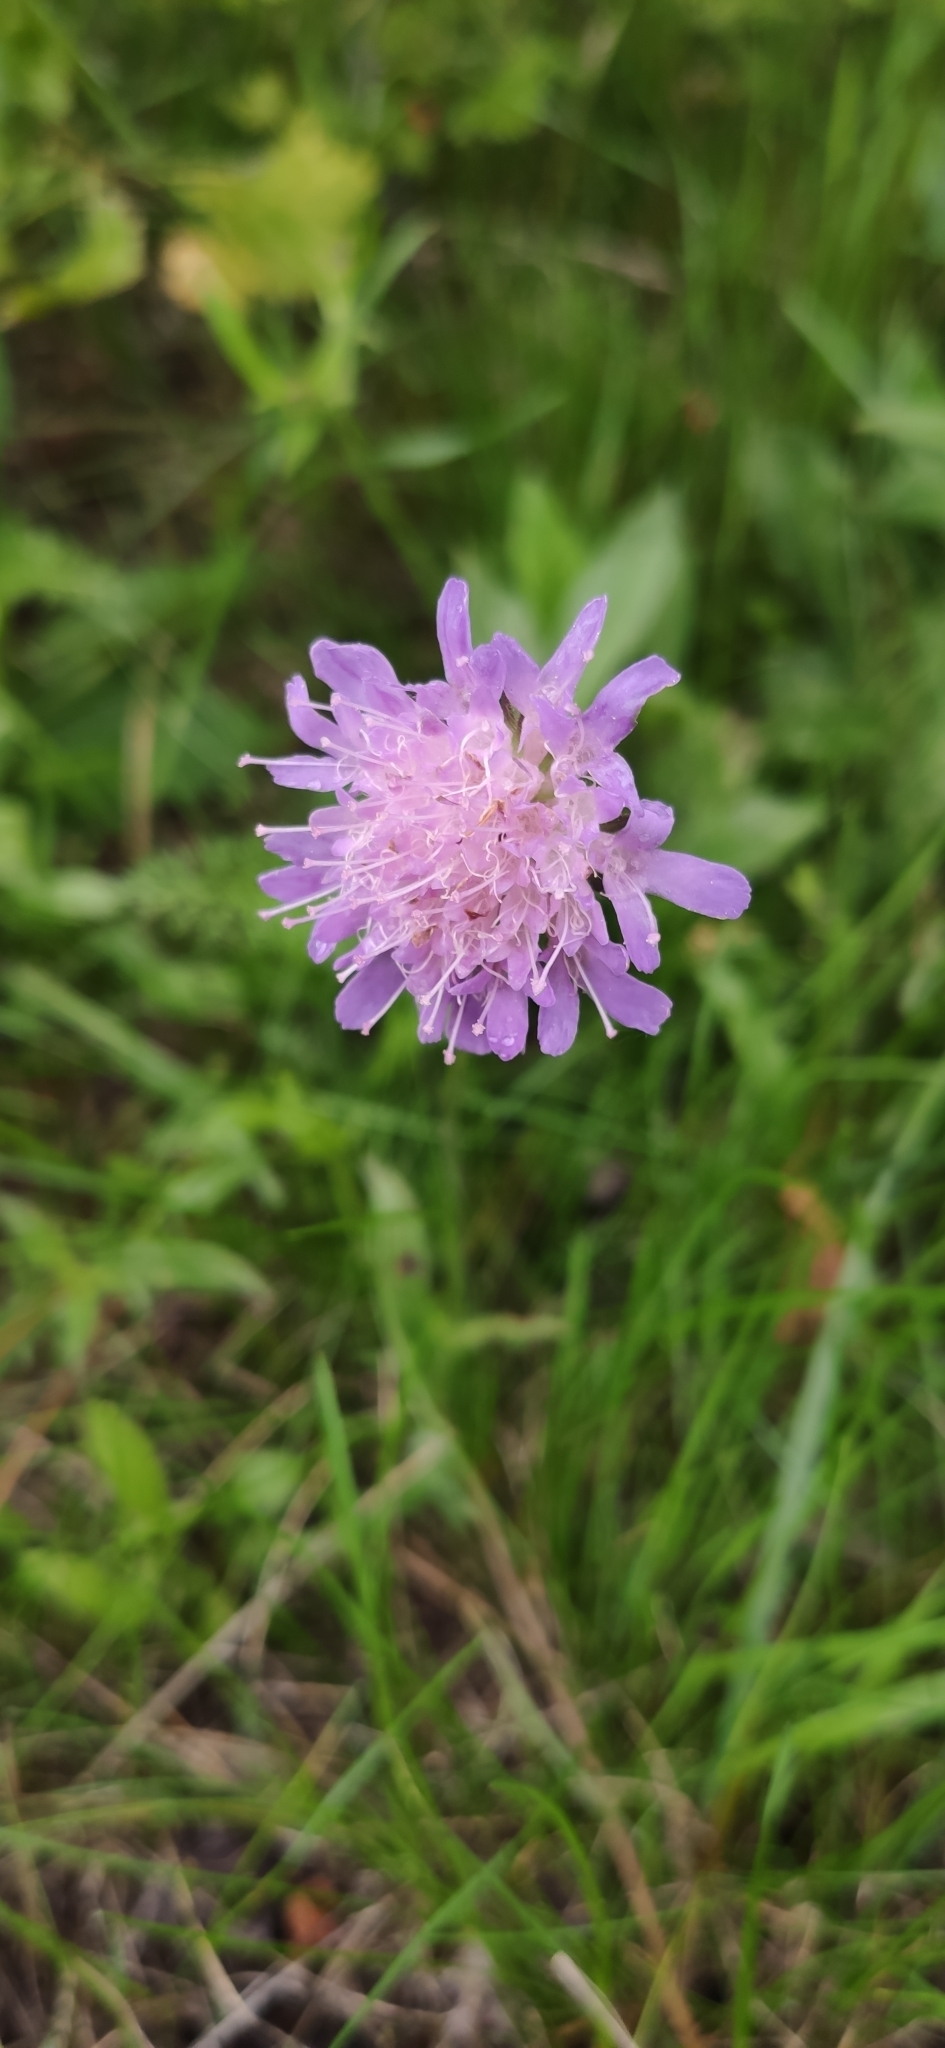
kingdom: Plantae
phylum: Tracheophyta
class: Magnoliopsida
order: Dipsacales
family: Caprifoliaceae
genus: Knautia
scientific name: Knautia arvensis
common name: Field scabiosa
